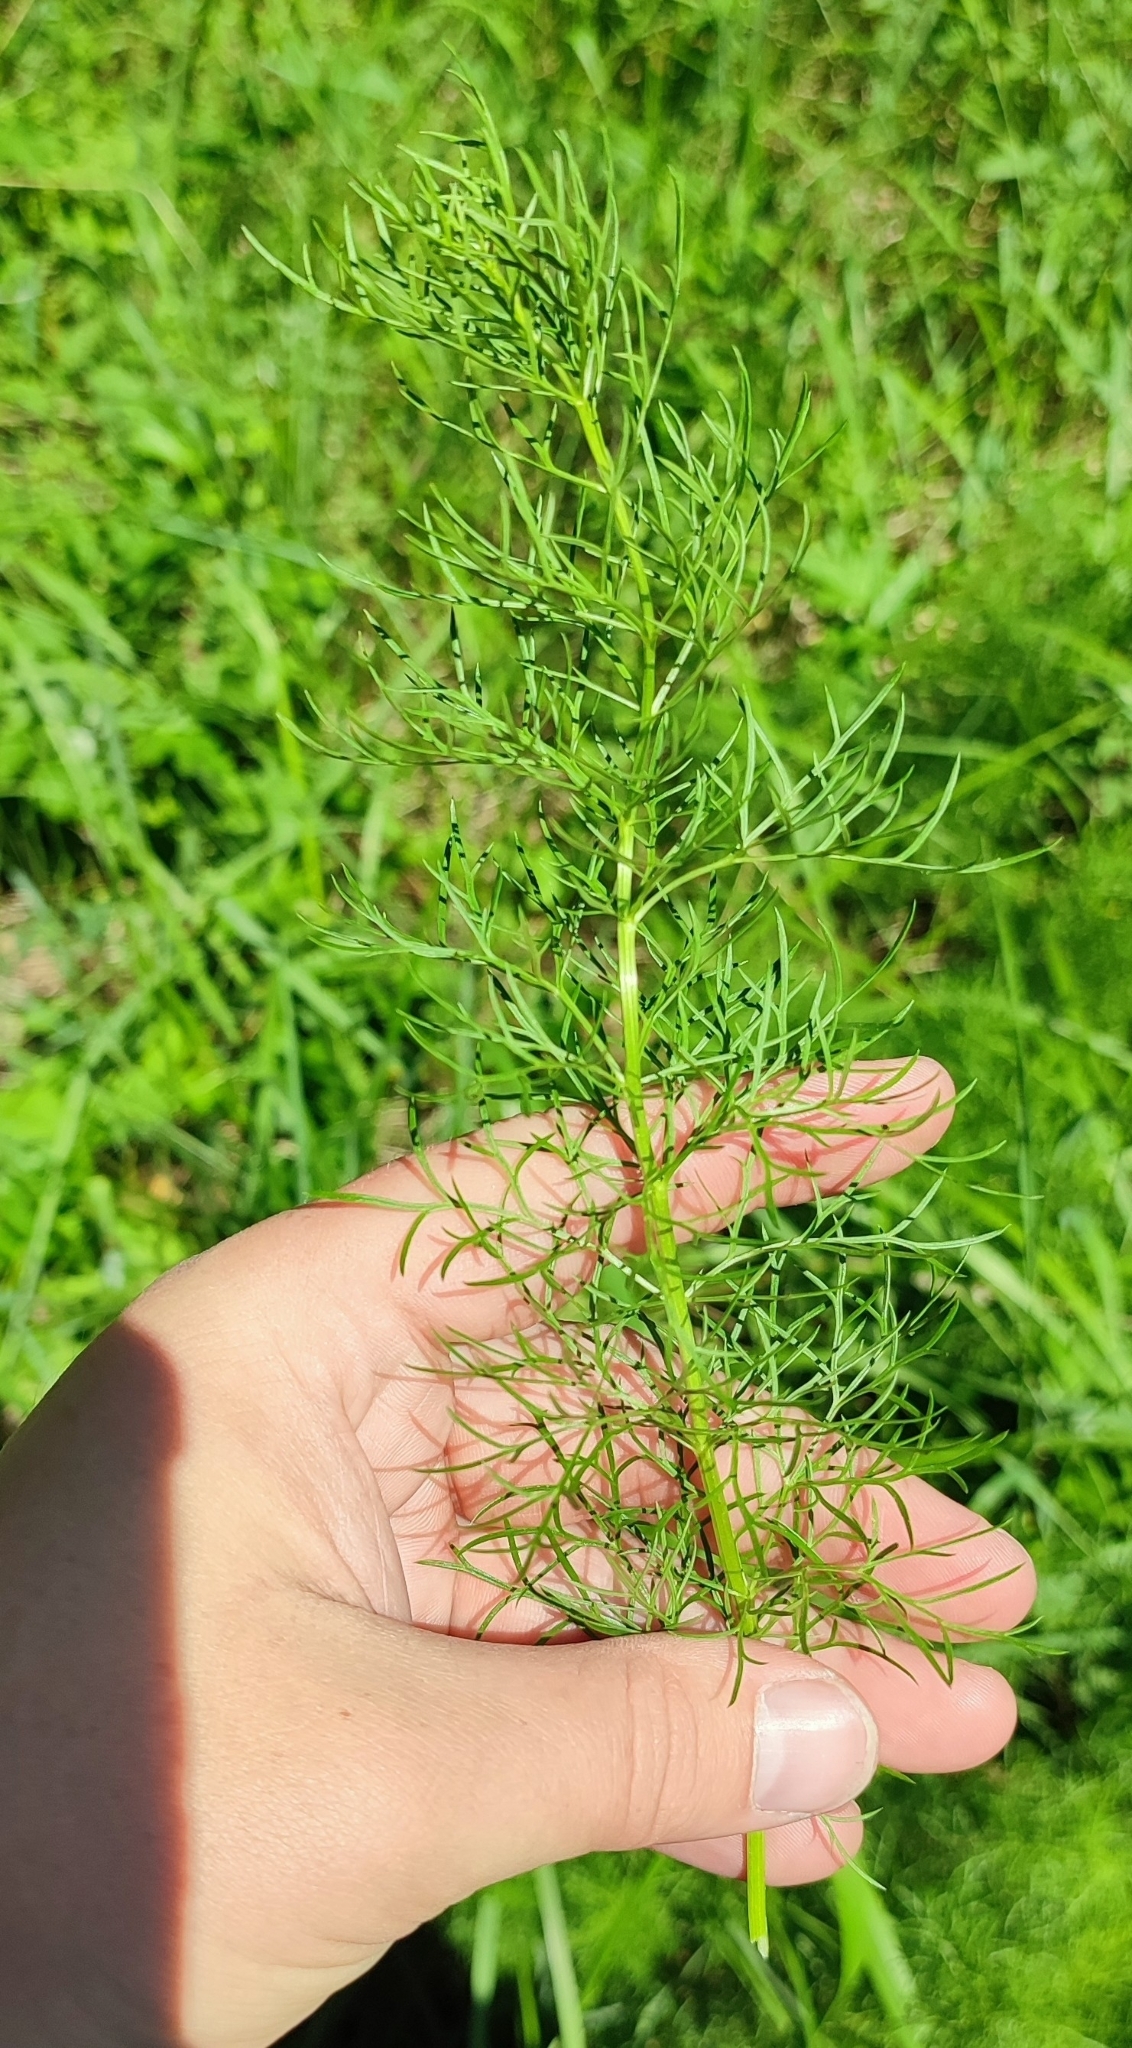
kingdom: Plantae
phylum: Tracheophyta
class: Magnoliopsida
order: Ranunculales
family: Ranunculaceae
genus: Adonis
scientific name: Adonis vernalis
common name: Yellow pheasants-eye
